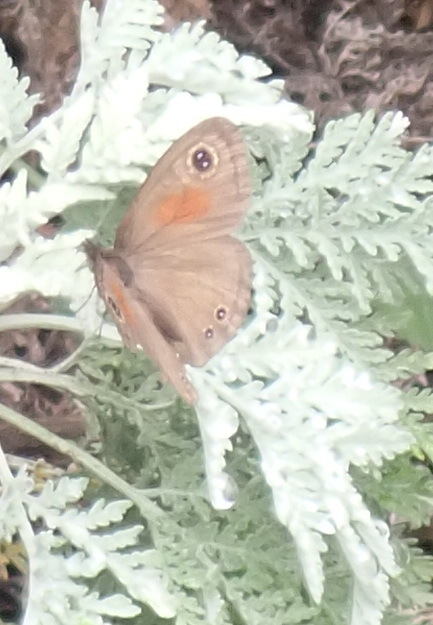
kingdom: Animalia
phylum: Arthropoda
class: Insecta
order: Lepidoptera
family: Nymphalidae
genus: Cassionympha
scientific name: Cassionympha cassius
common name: Rainforest brown
